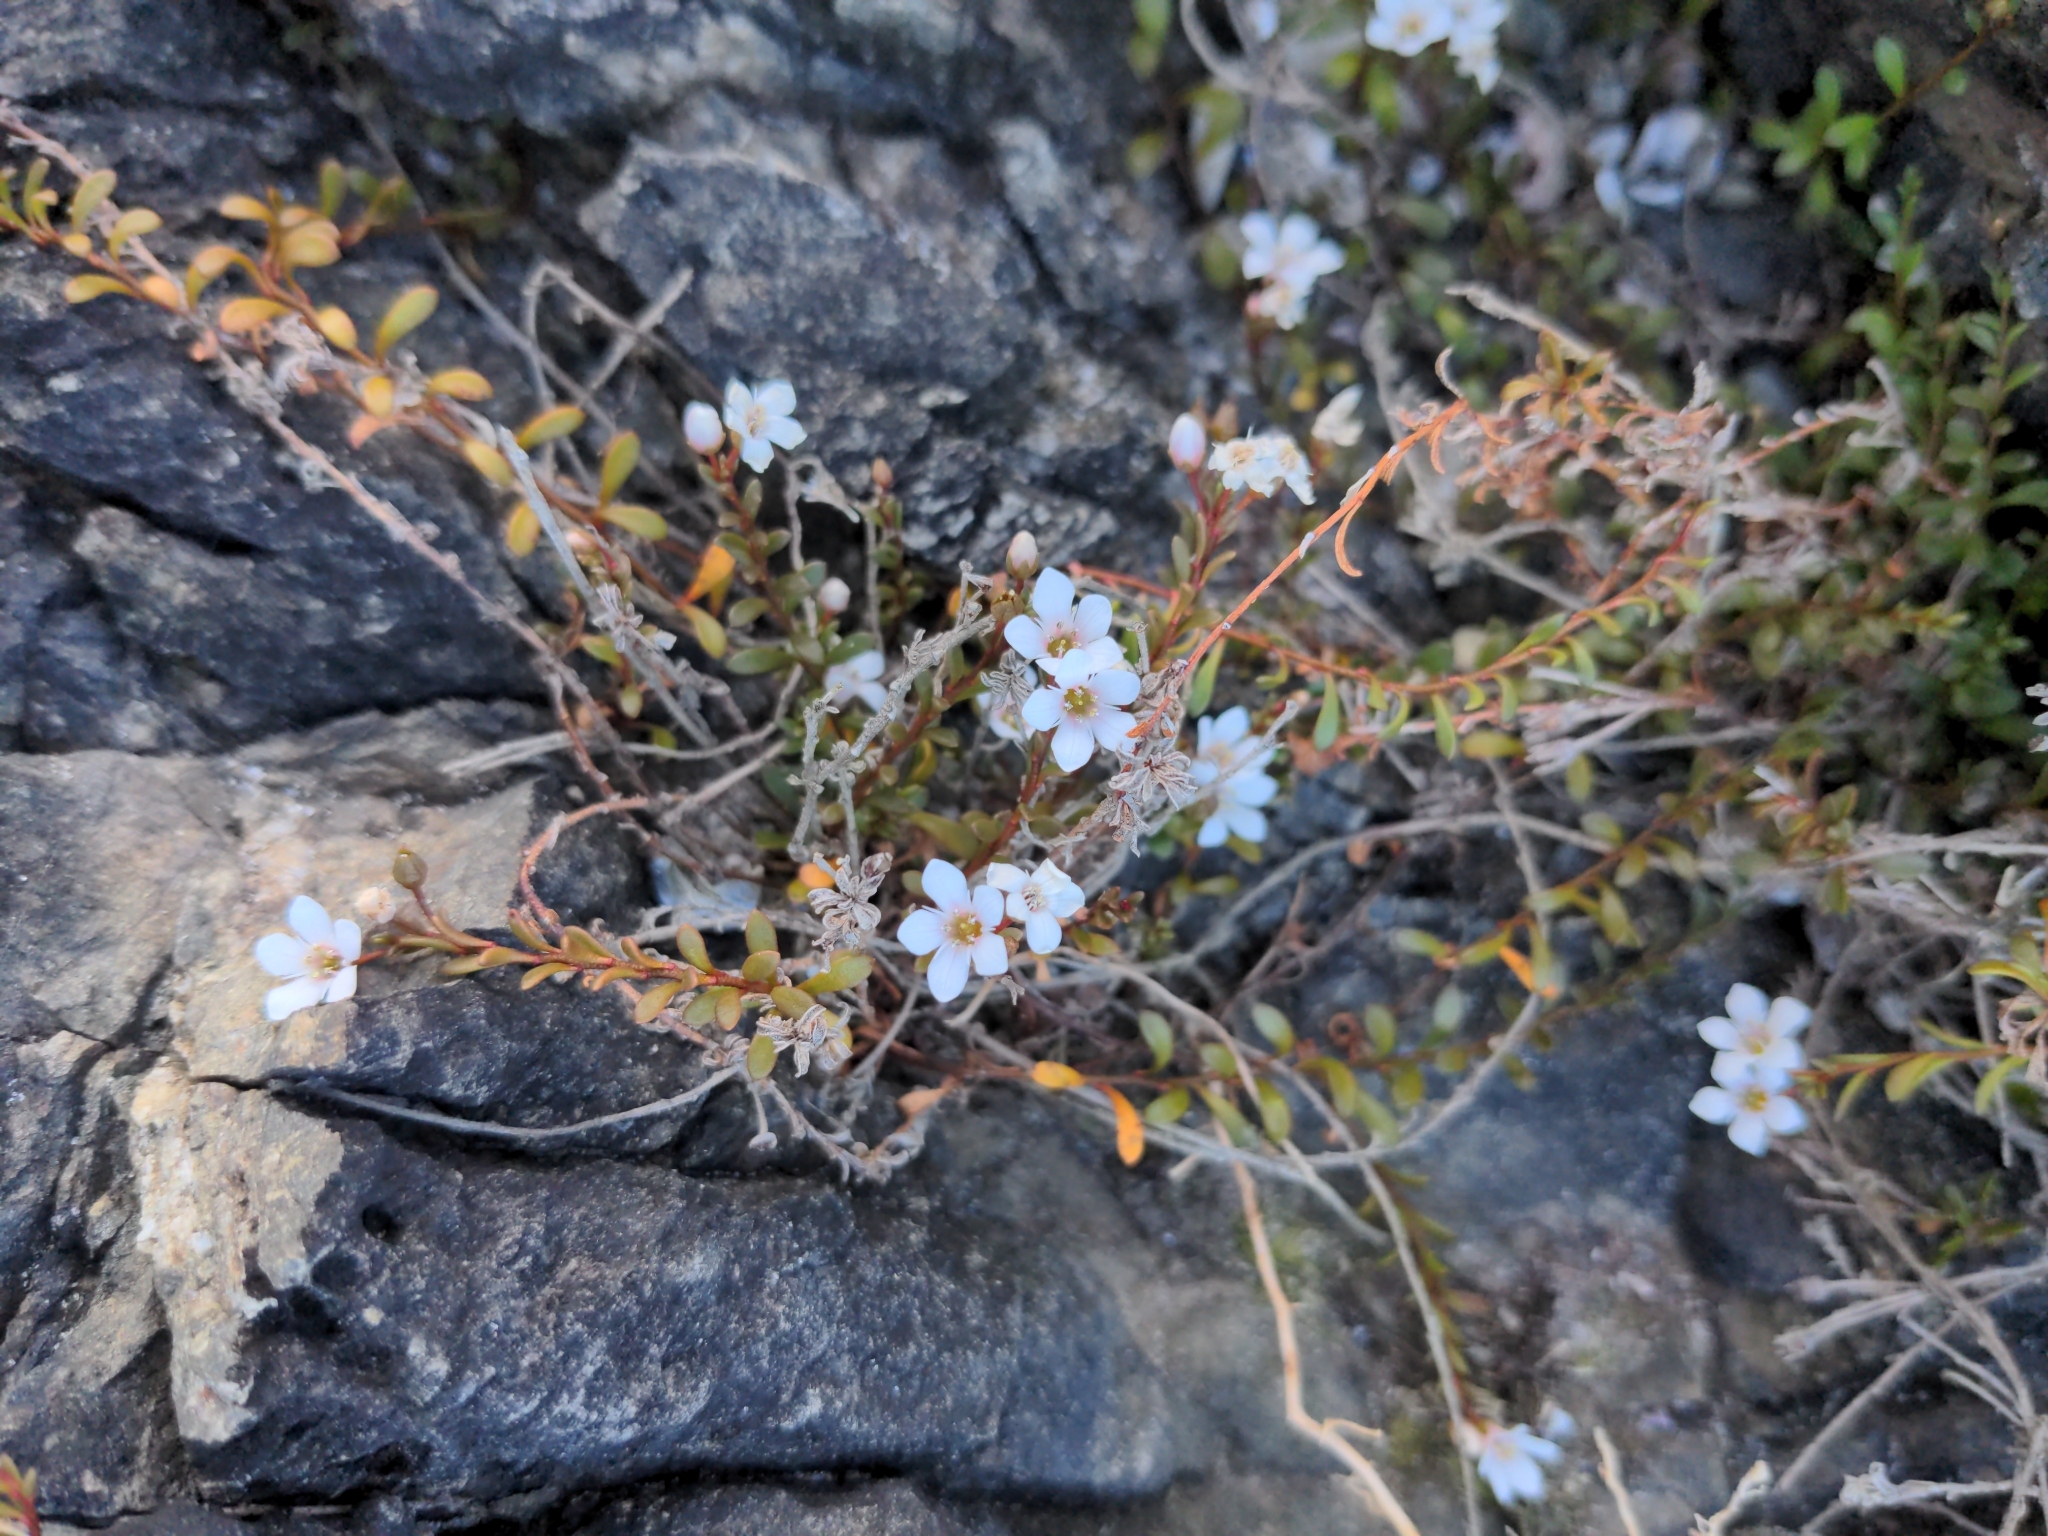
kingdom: Plantae
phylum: Tracheophyta
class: Magnoliopsida
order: Ericales
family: Primulaceae
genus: Samolus
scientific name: Samolus repens
